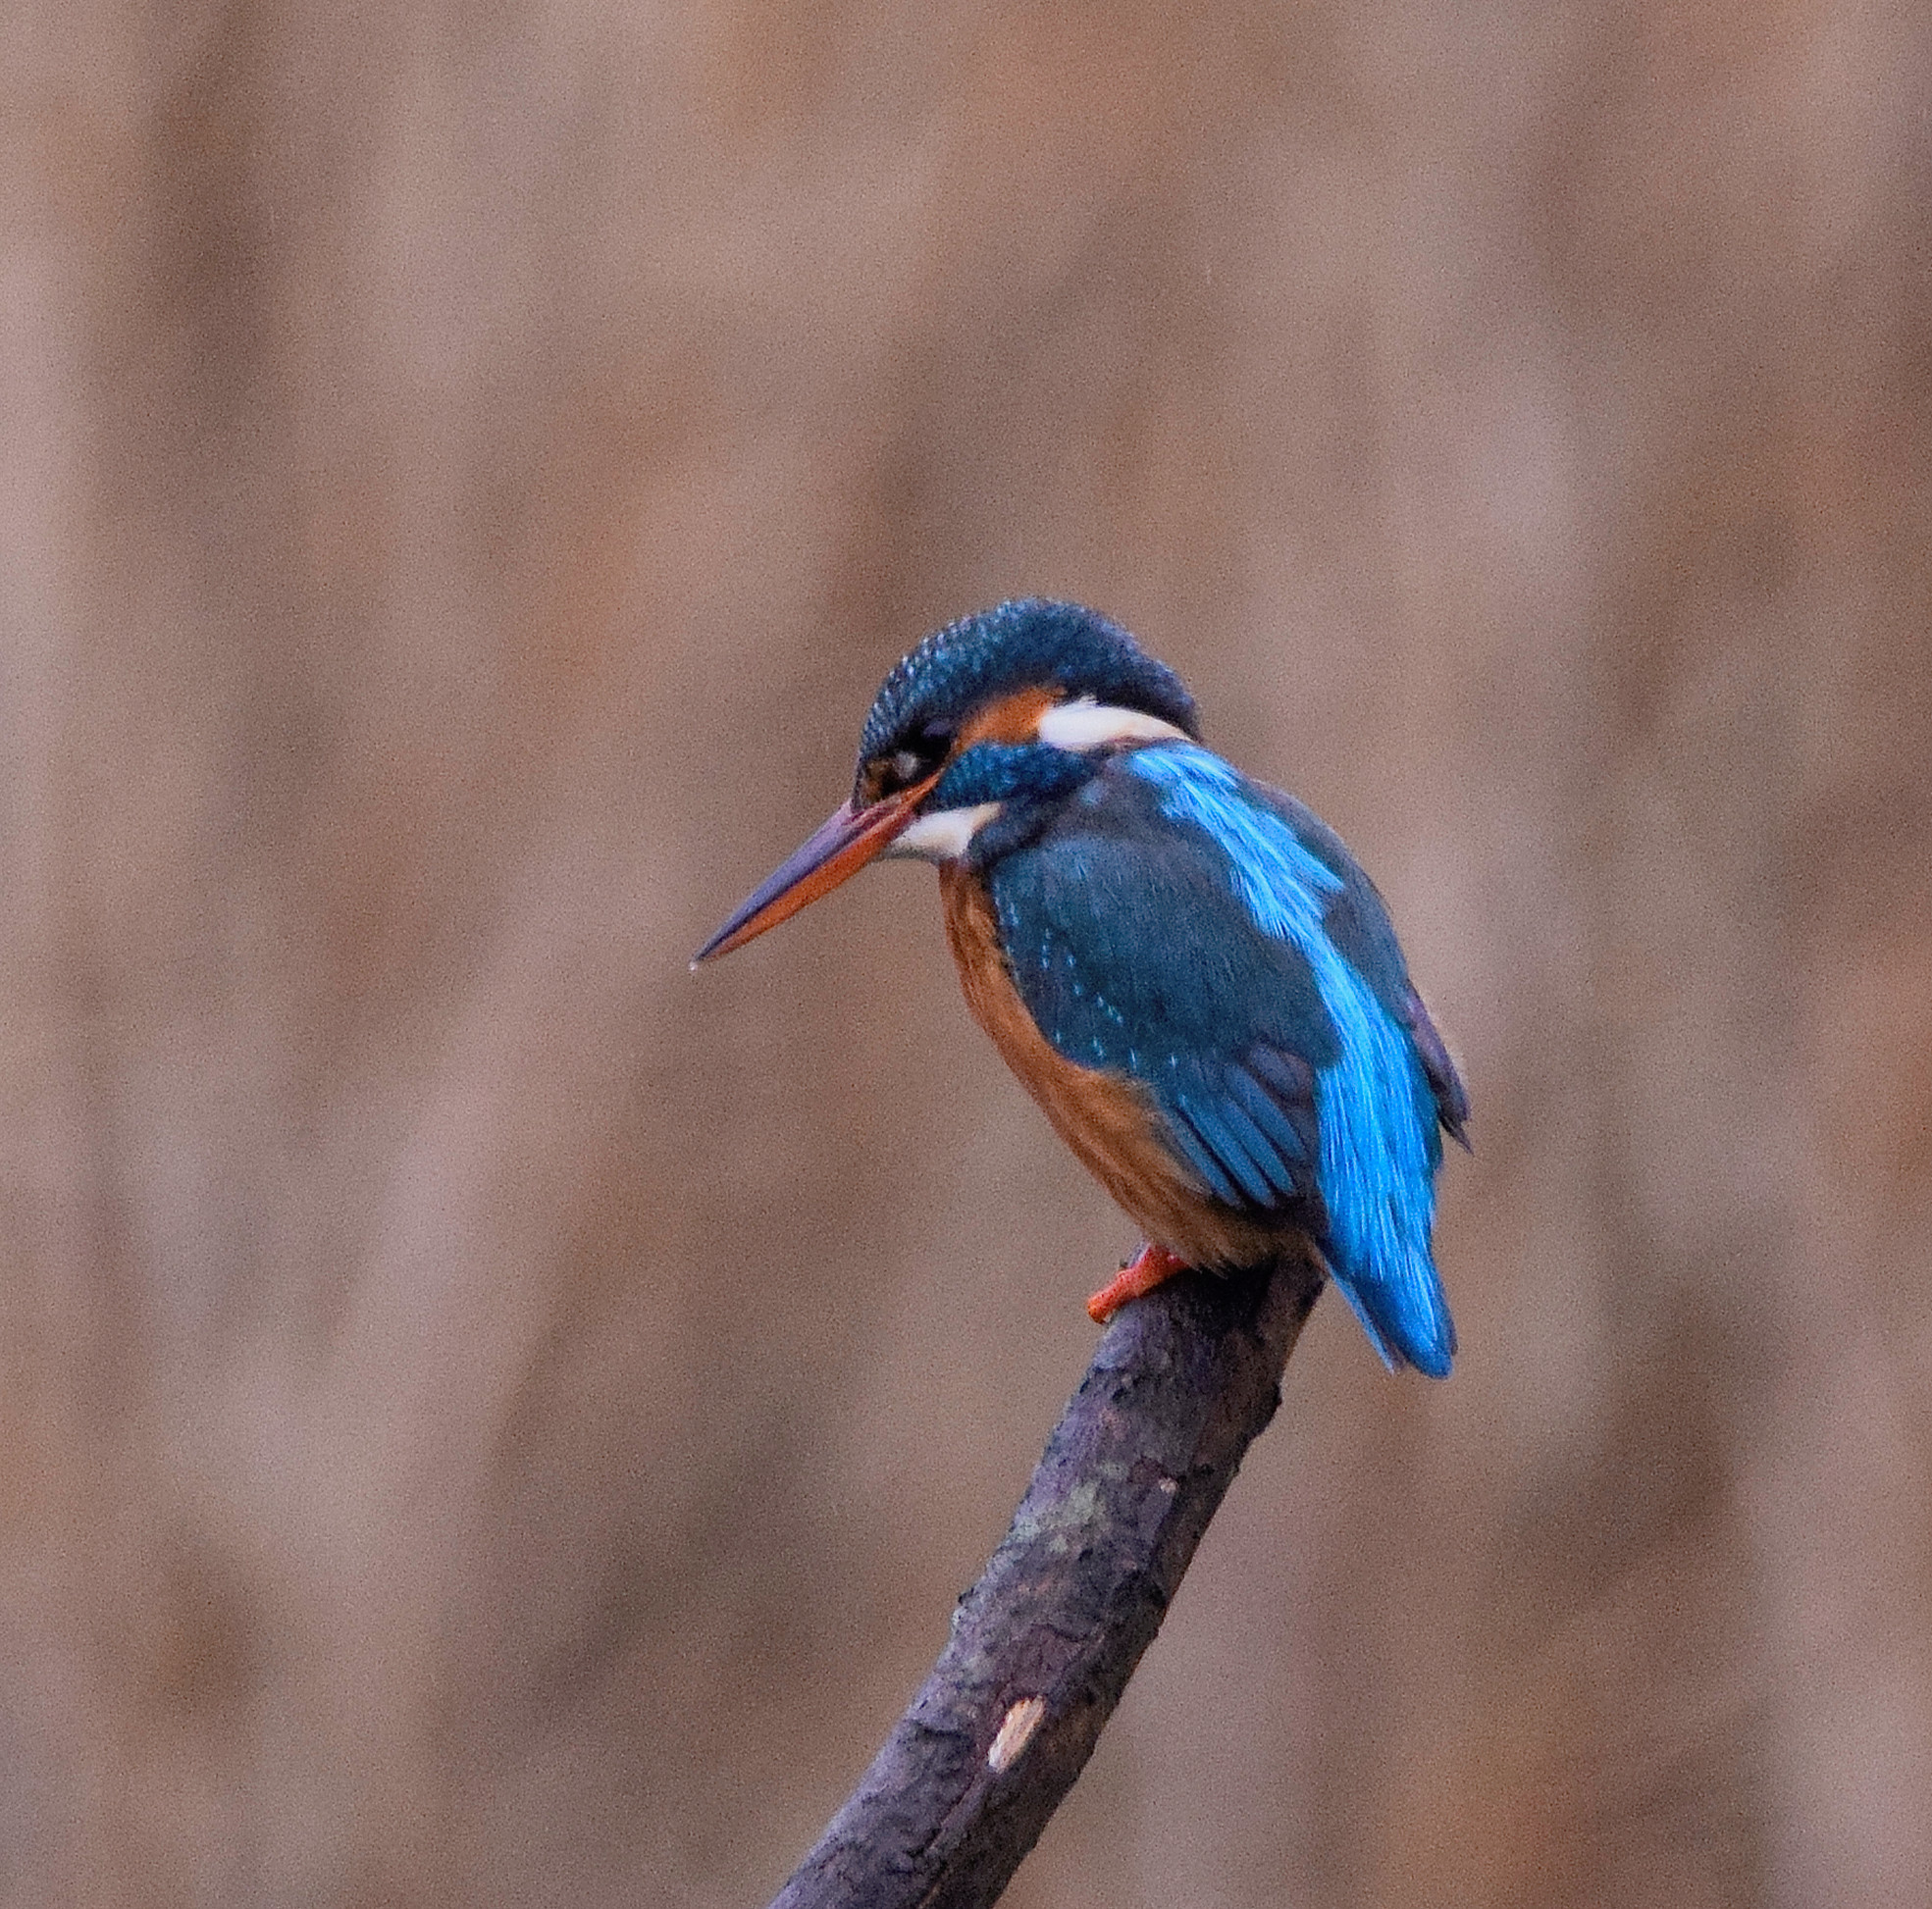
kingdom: Animalia
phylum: Chordata
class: Aves
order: Coraciiformes
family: Alcedinidae
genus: Alcedo
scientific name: Alcedo atthis
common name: Common kingfisher
